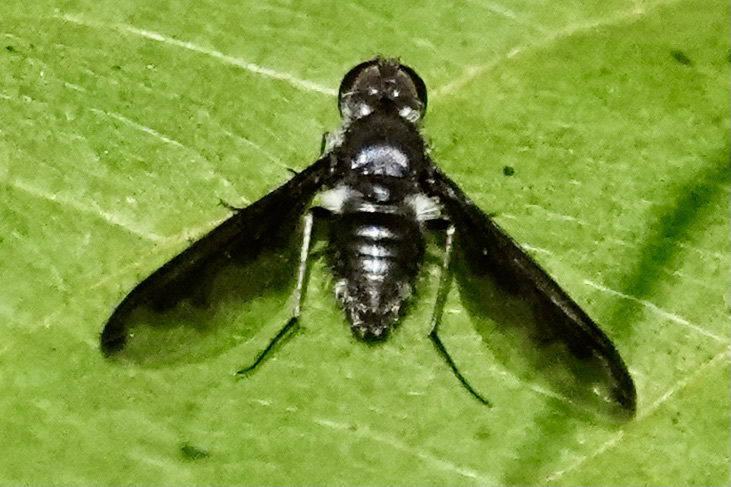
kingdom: Animalia
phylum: Arthropoda
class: Insecta
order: Diptera
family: Bombyliidae
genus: Anthrax
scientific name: Anthrax argyropygus
